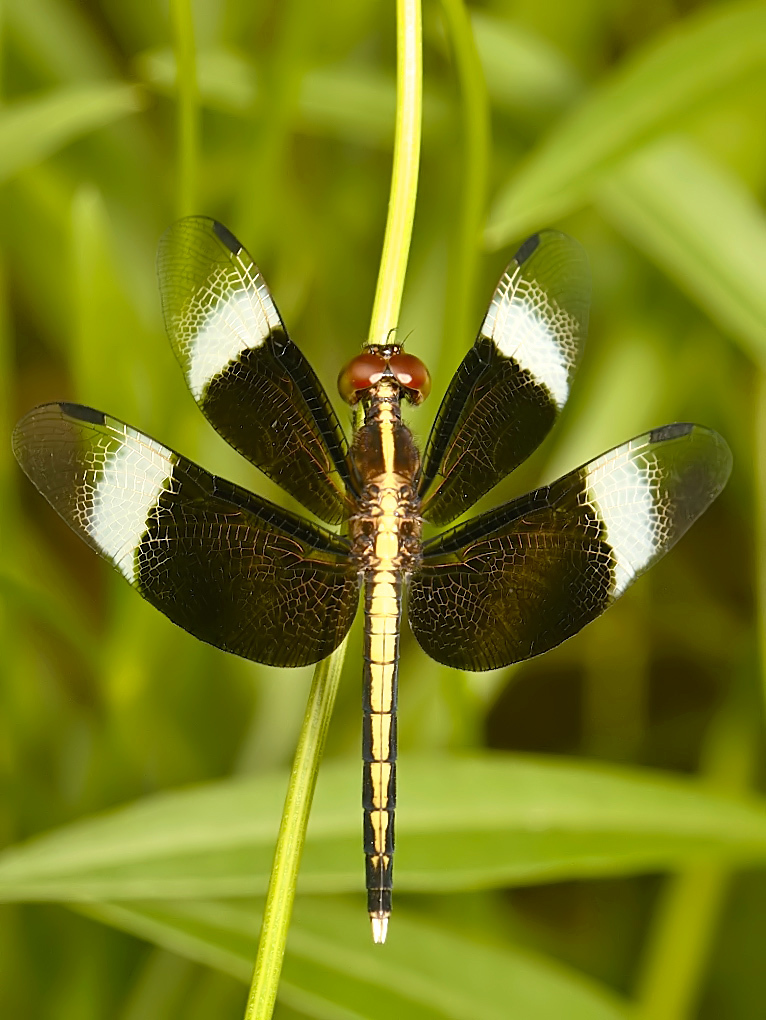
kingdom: Animalia
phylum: Arthropoda
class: Insecta
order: Odonata
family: Libellulidae
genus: Neurothemis
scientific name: Neurothemis tullia
